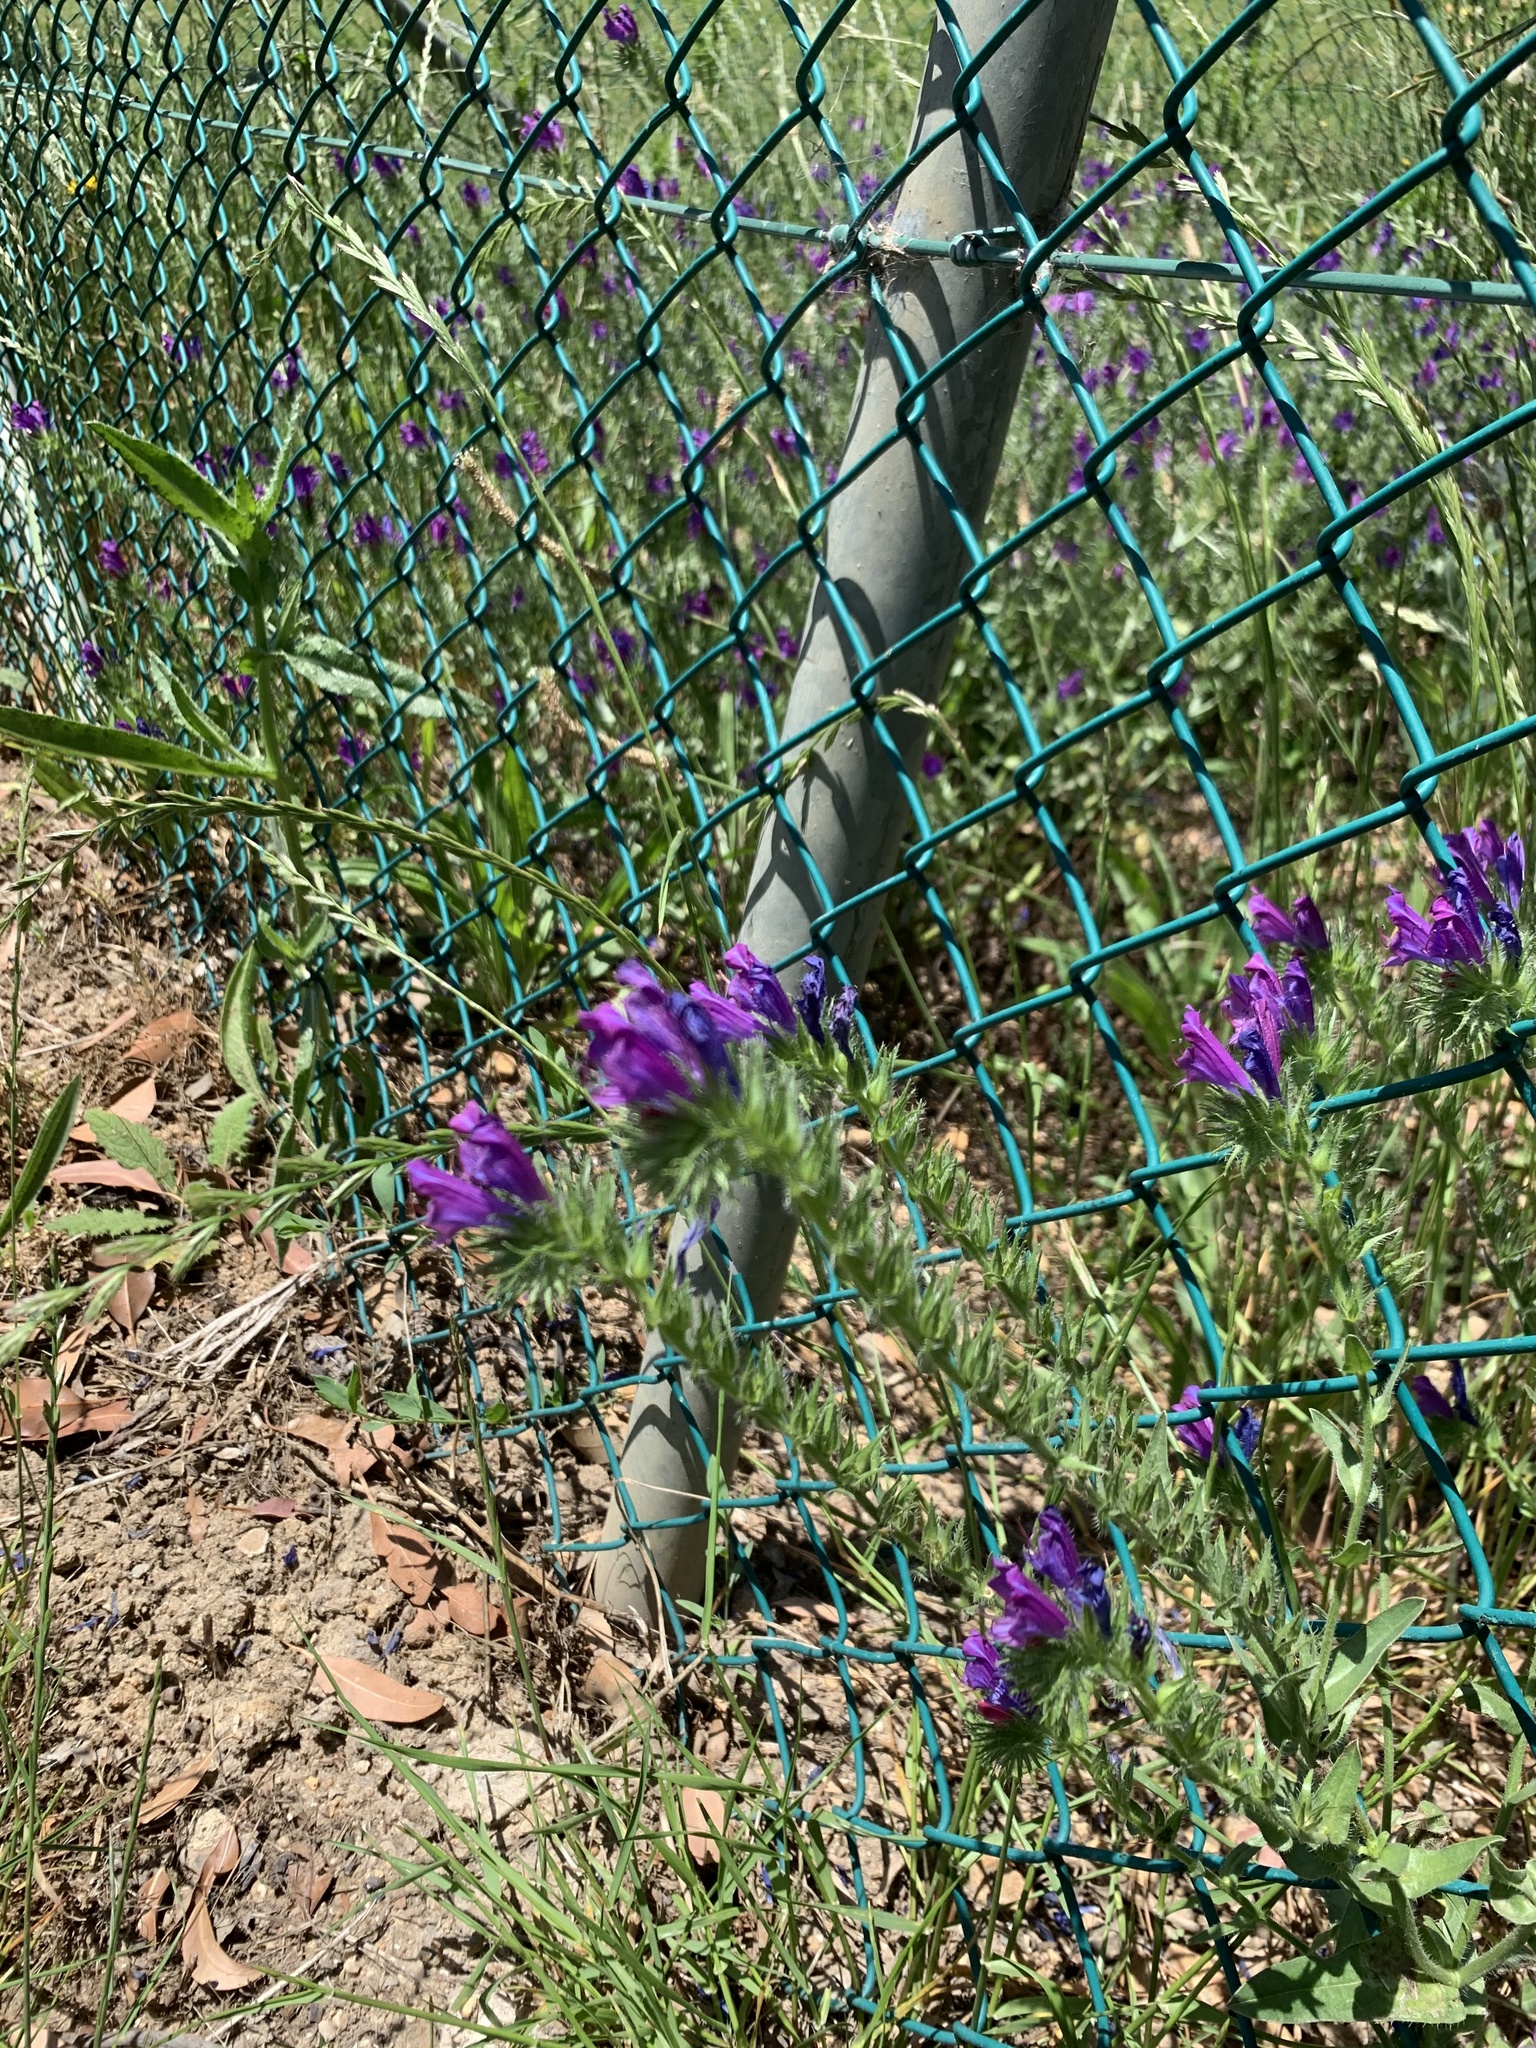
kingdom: Plantae
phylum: Tracheophyta
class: Magnoliopsida
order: Boraginales
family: Boraginaceae
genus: Echium
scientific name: Echium plantagineum
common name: Purple viper's-bugloss
